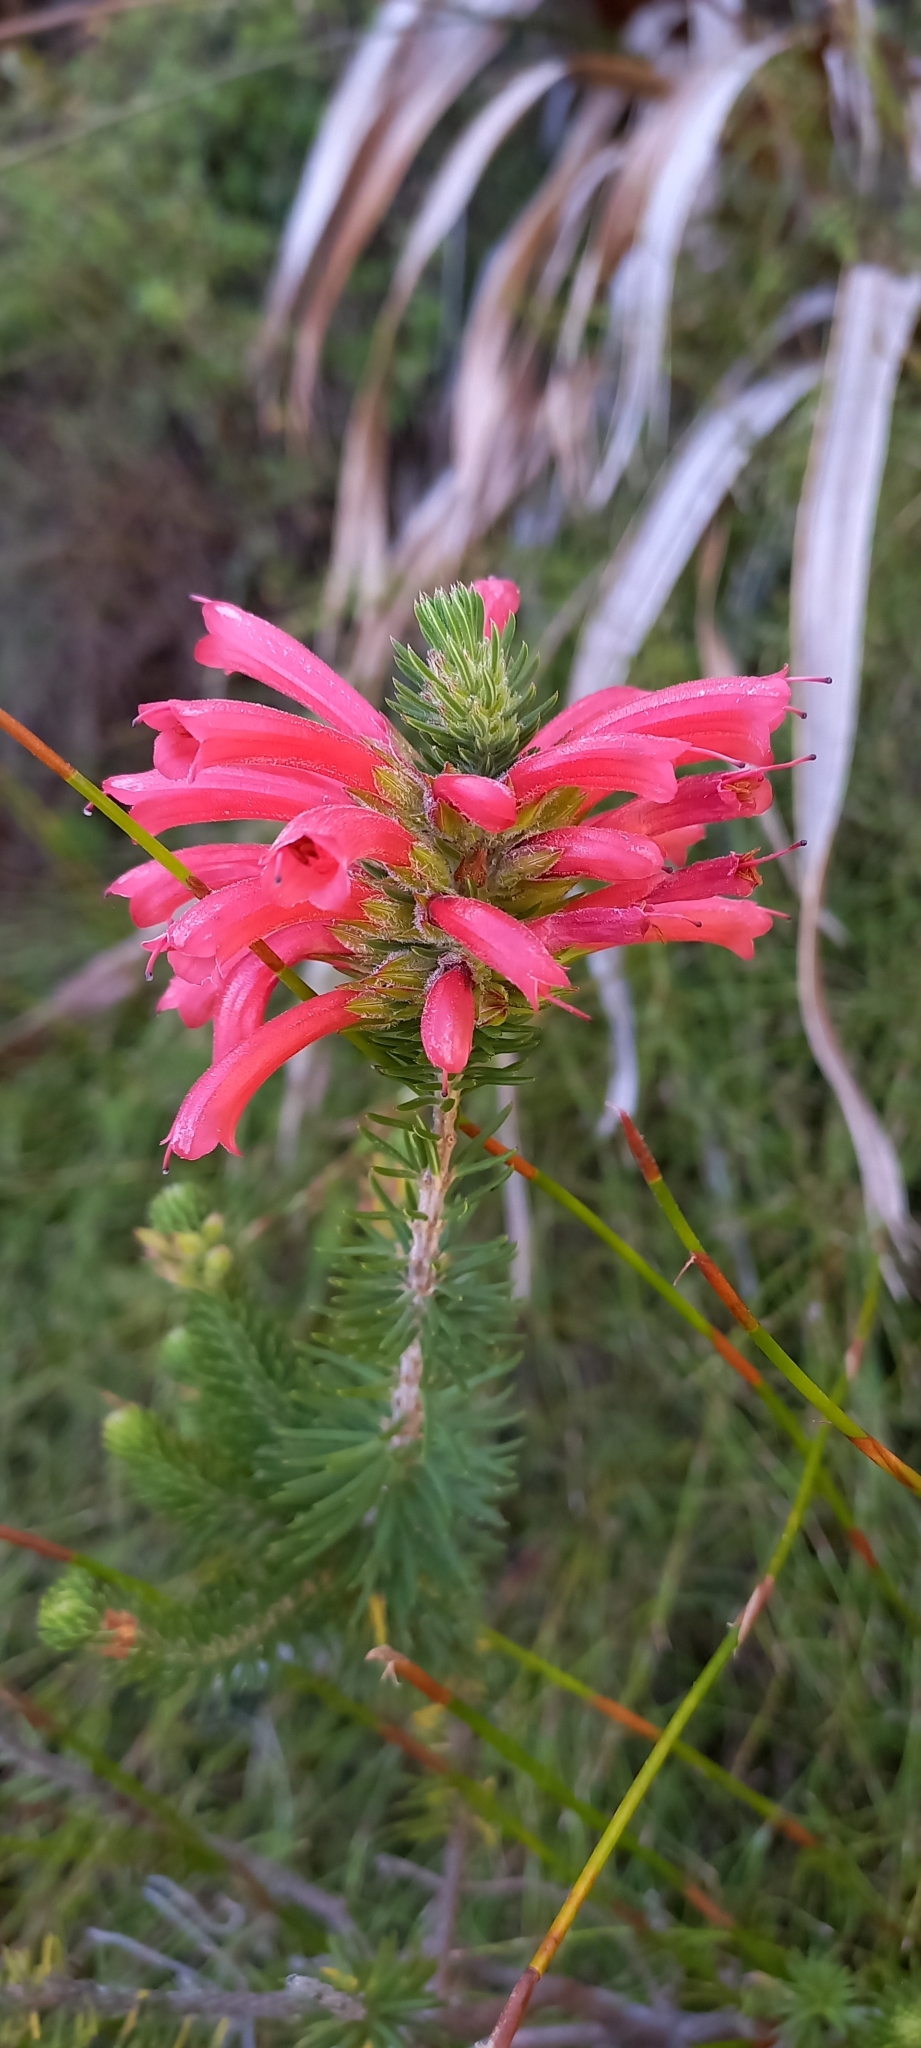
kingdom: Plantae
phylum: Tracheophyta
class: Magnoliopsida
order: Ericales
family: Ericaceae
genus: Erica
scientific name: Erica abietina
